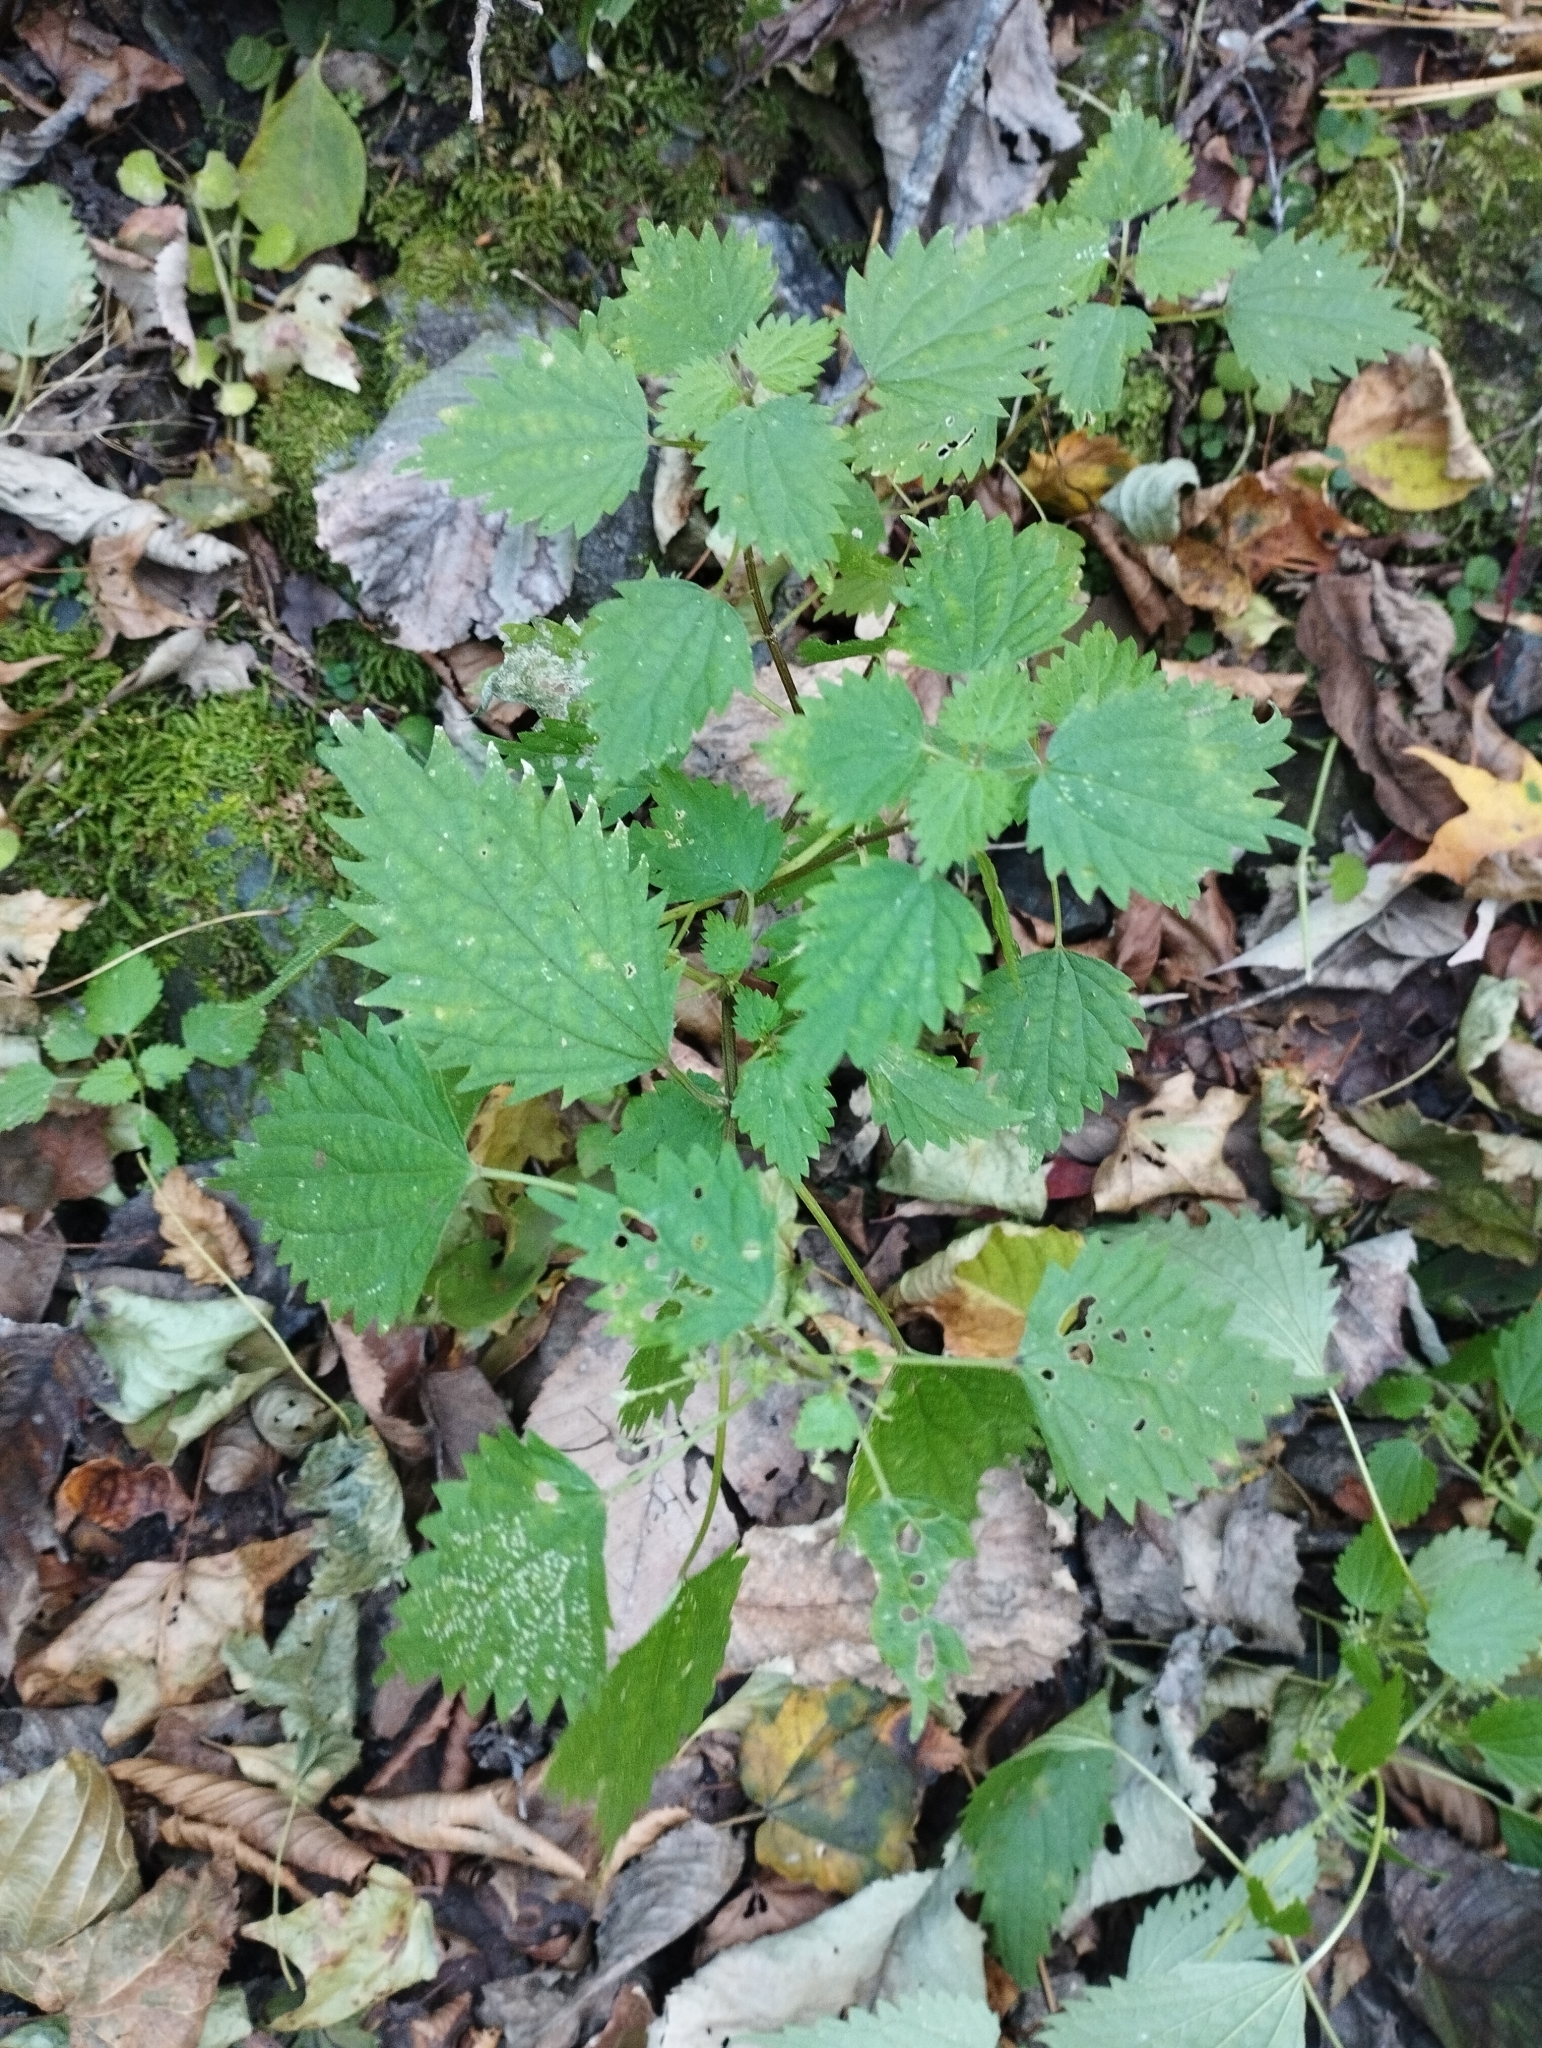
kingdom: Plantae
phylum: Tracheophyta
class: Magnoliopsida
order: Rosales
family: Urticaceae
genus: Urtica
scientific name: Urtica thunbergiana
